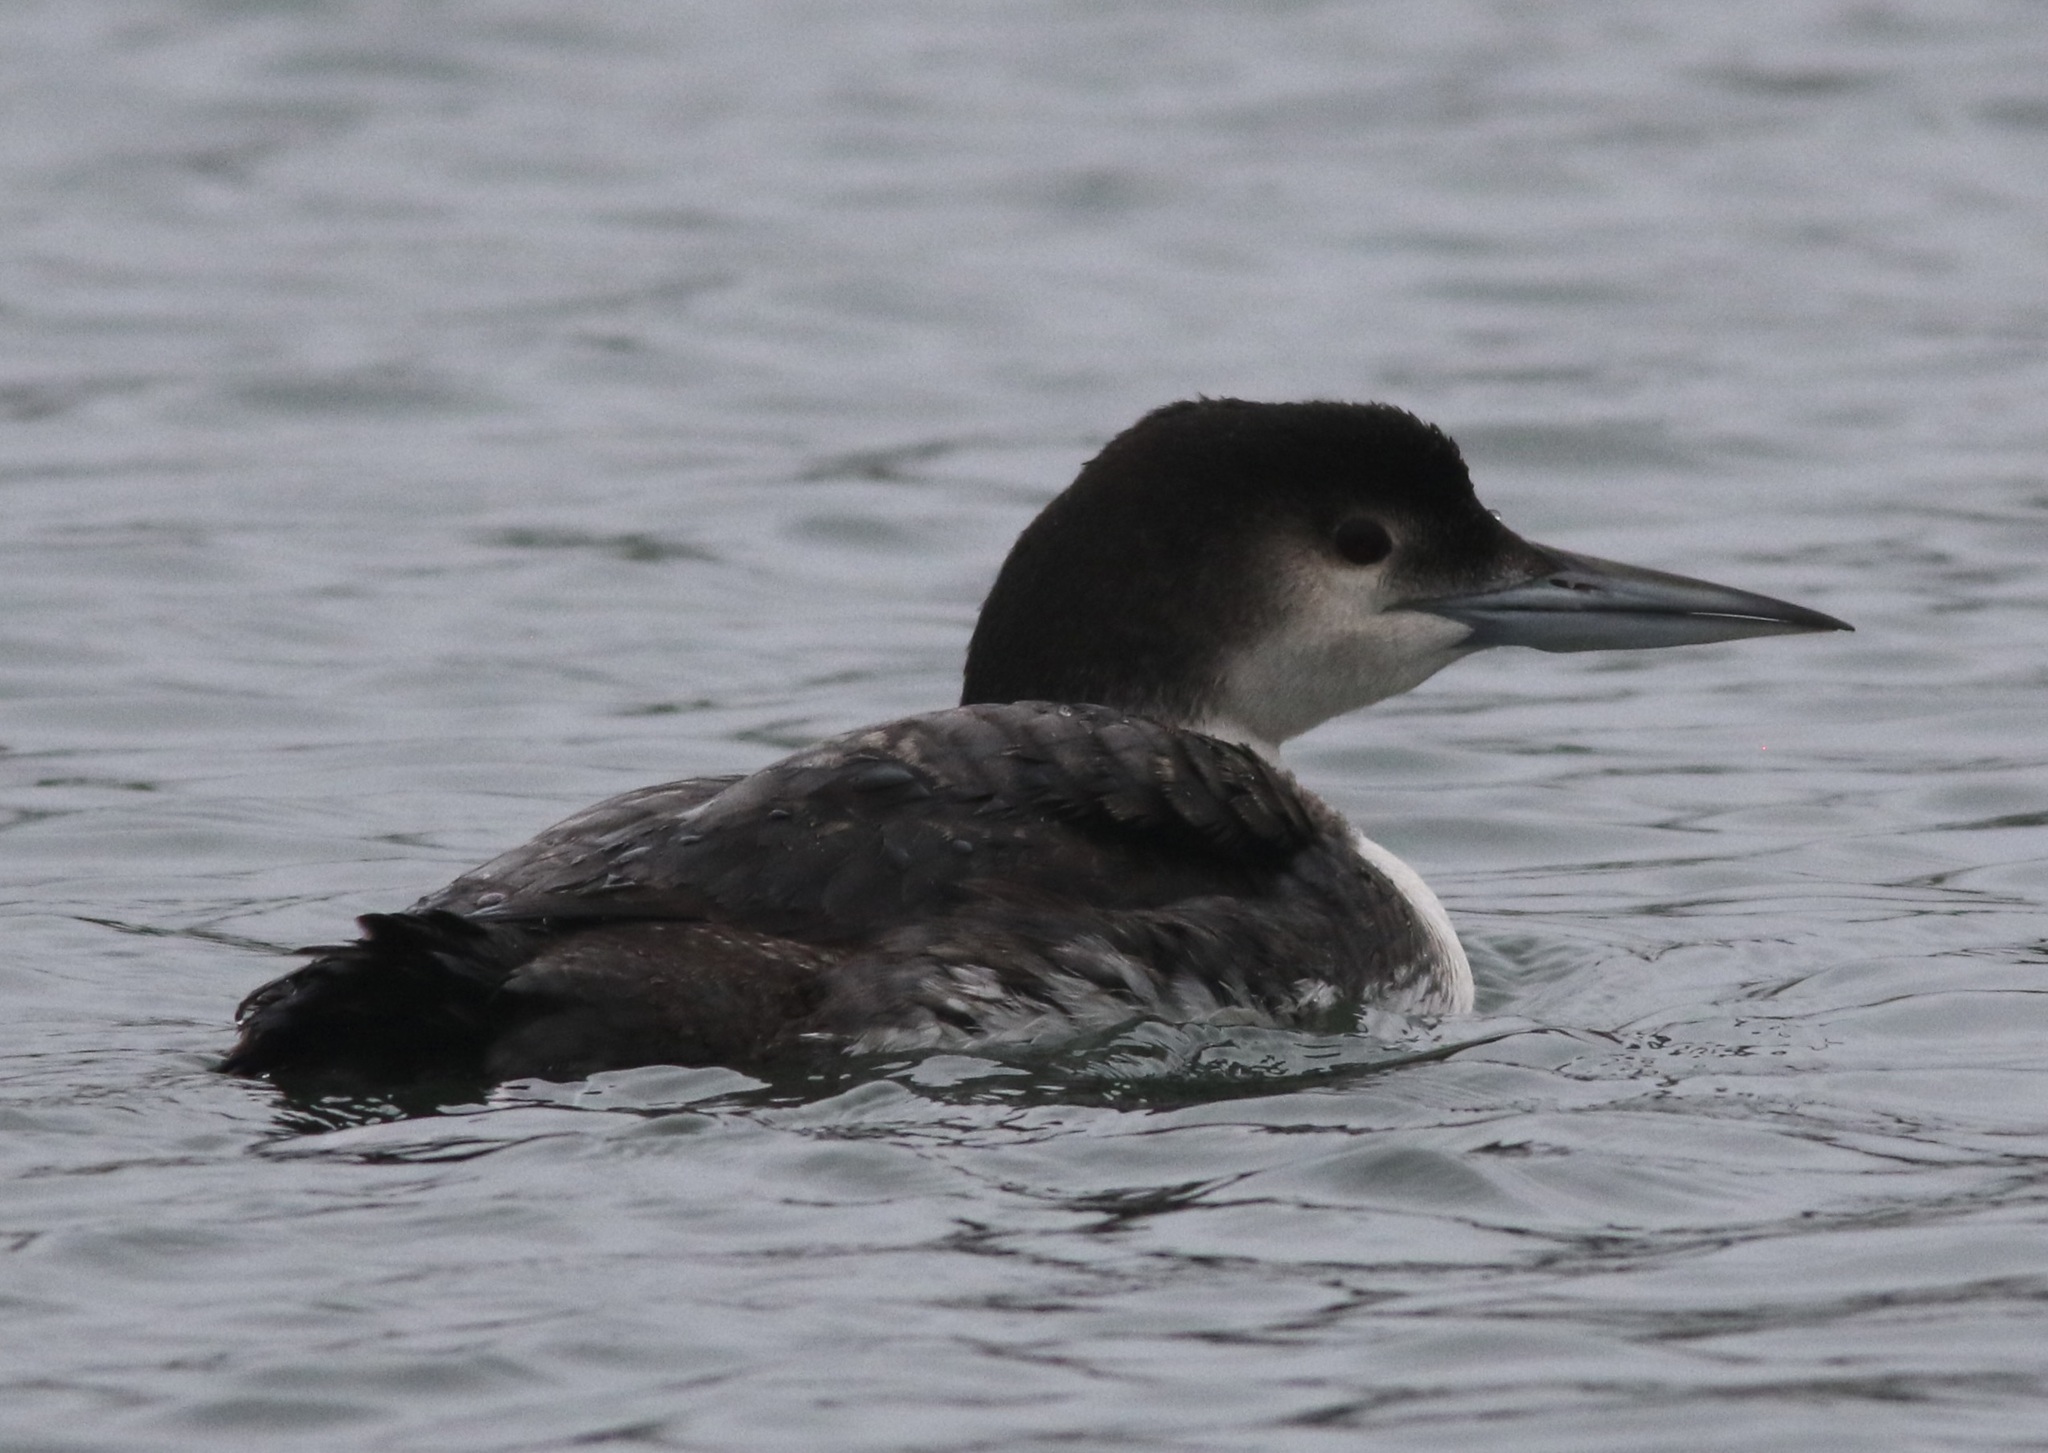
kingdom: Animalia
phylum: Chordata
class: Aves
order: Gaviiformes
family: Gaviidae
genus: Gavia
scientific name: Gavia immer
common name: Common loon
